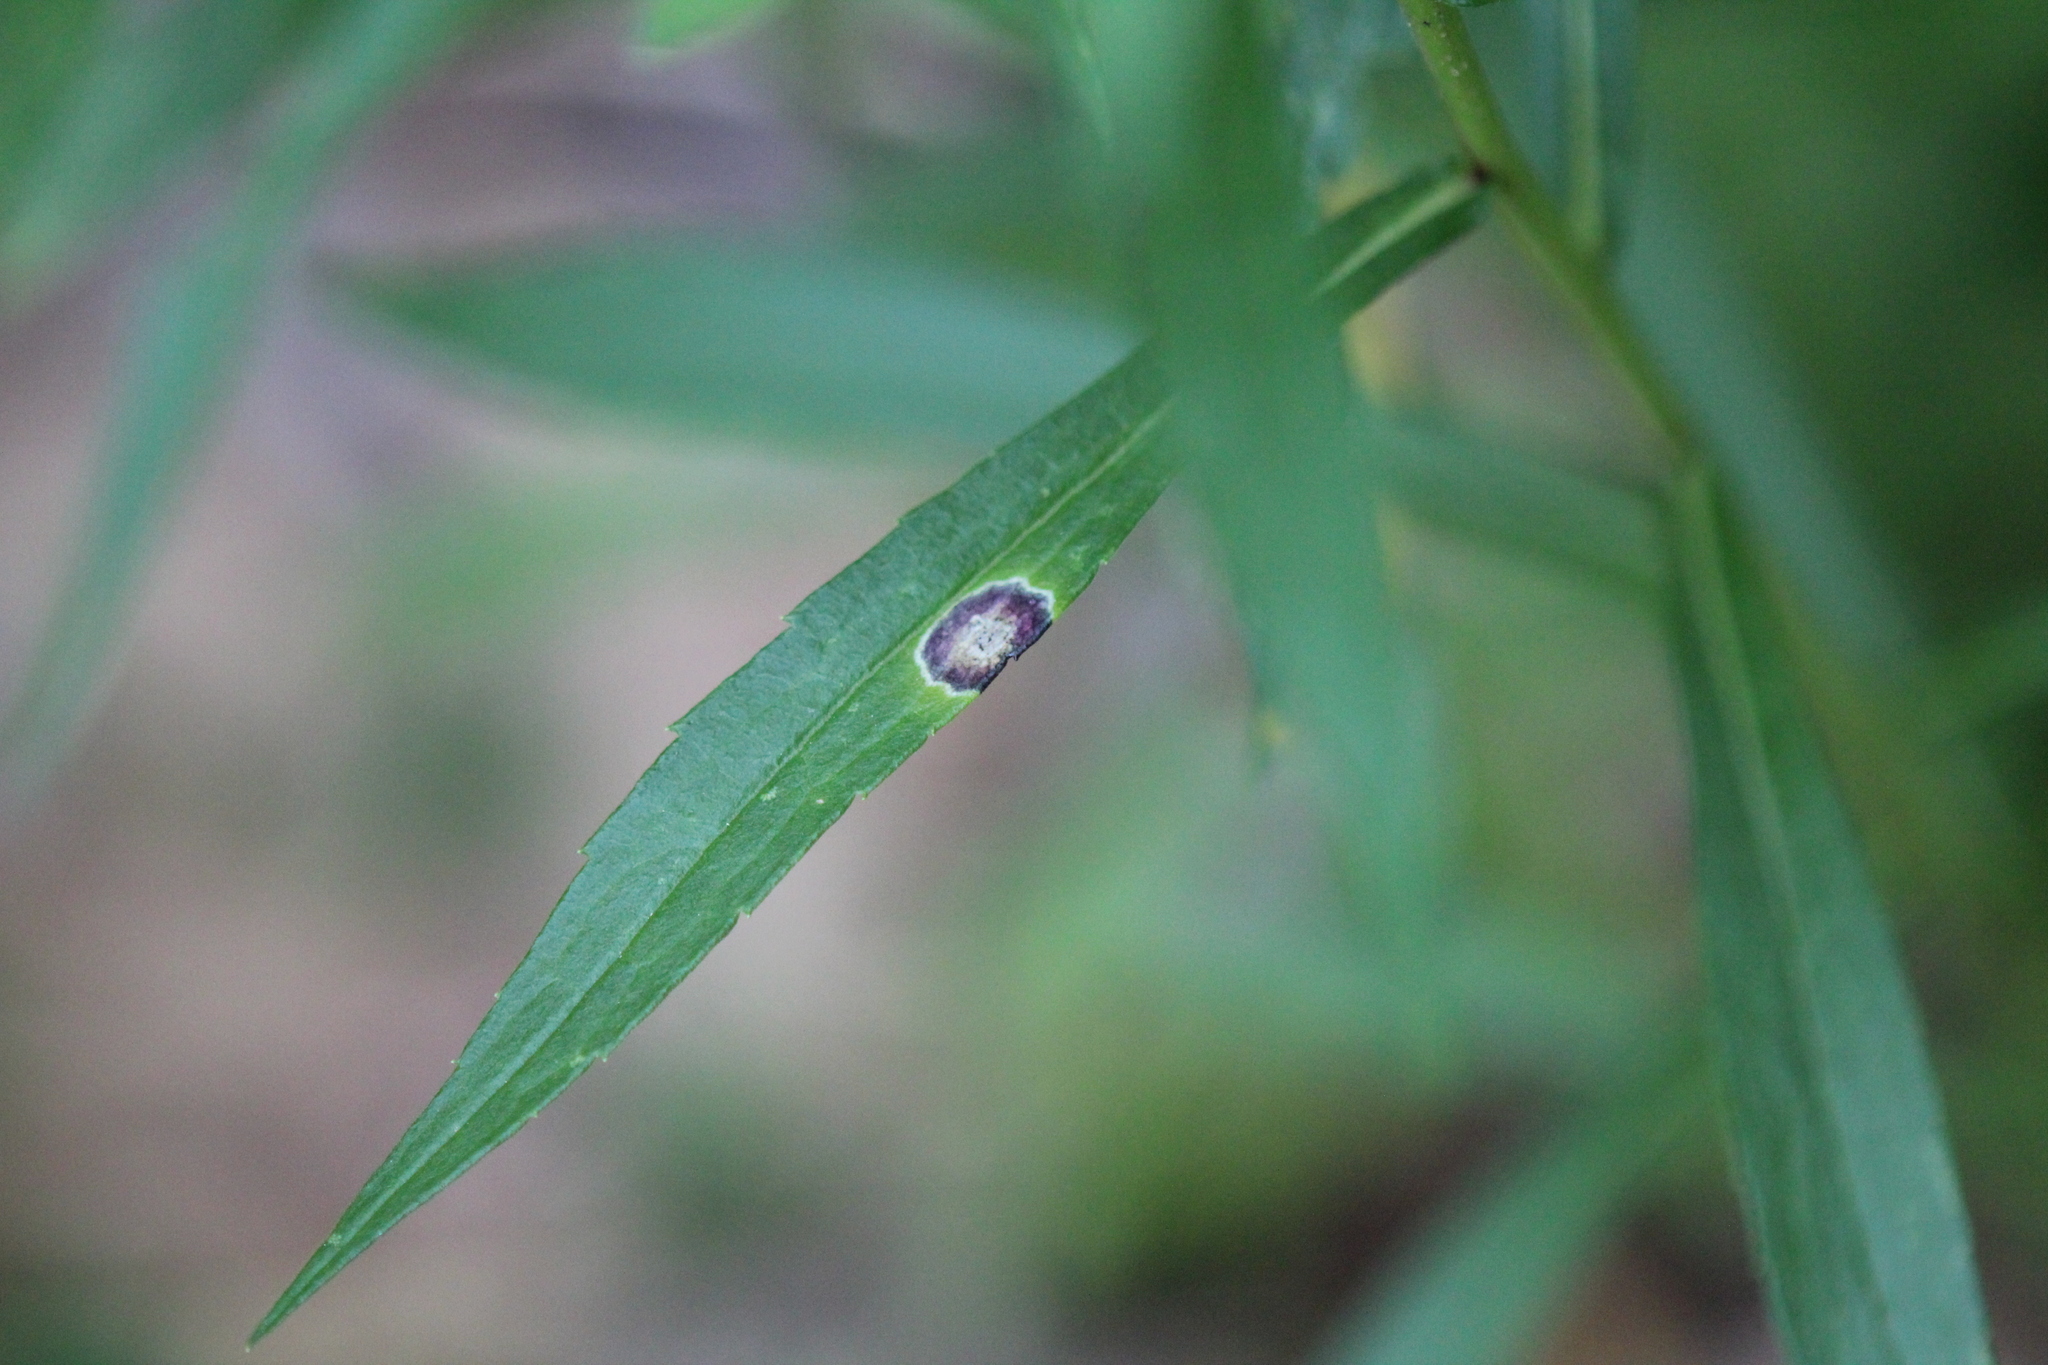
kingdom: Animalia
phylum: Arthropoda
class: Insecta
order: Diptera
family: Cecidomyiidae
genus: Asteromyia
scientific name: Asteromyia carbonifera
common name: Carbonifera goldenrod gall midge
